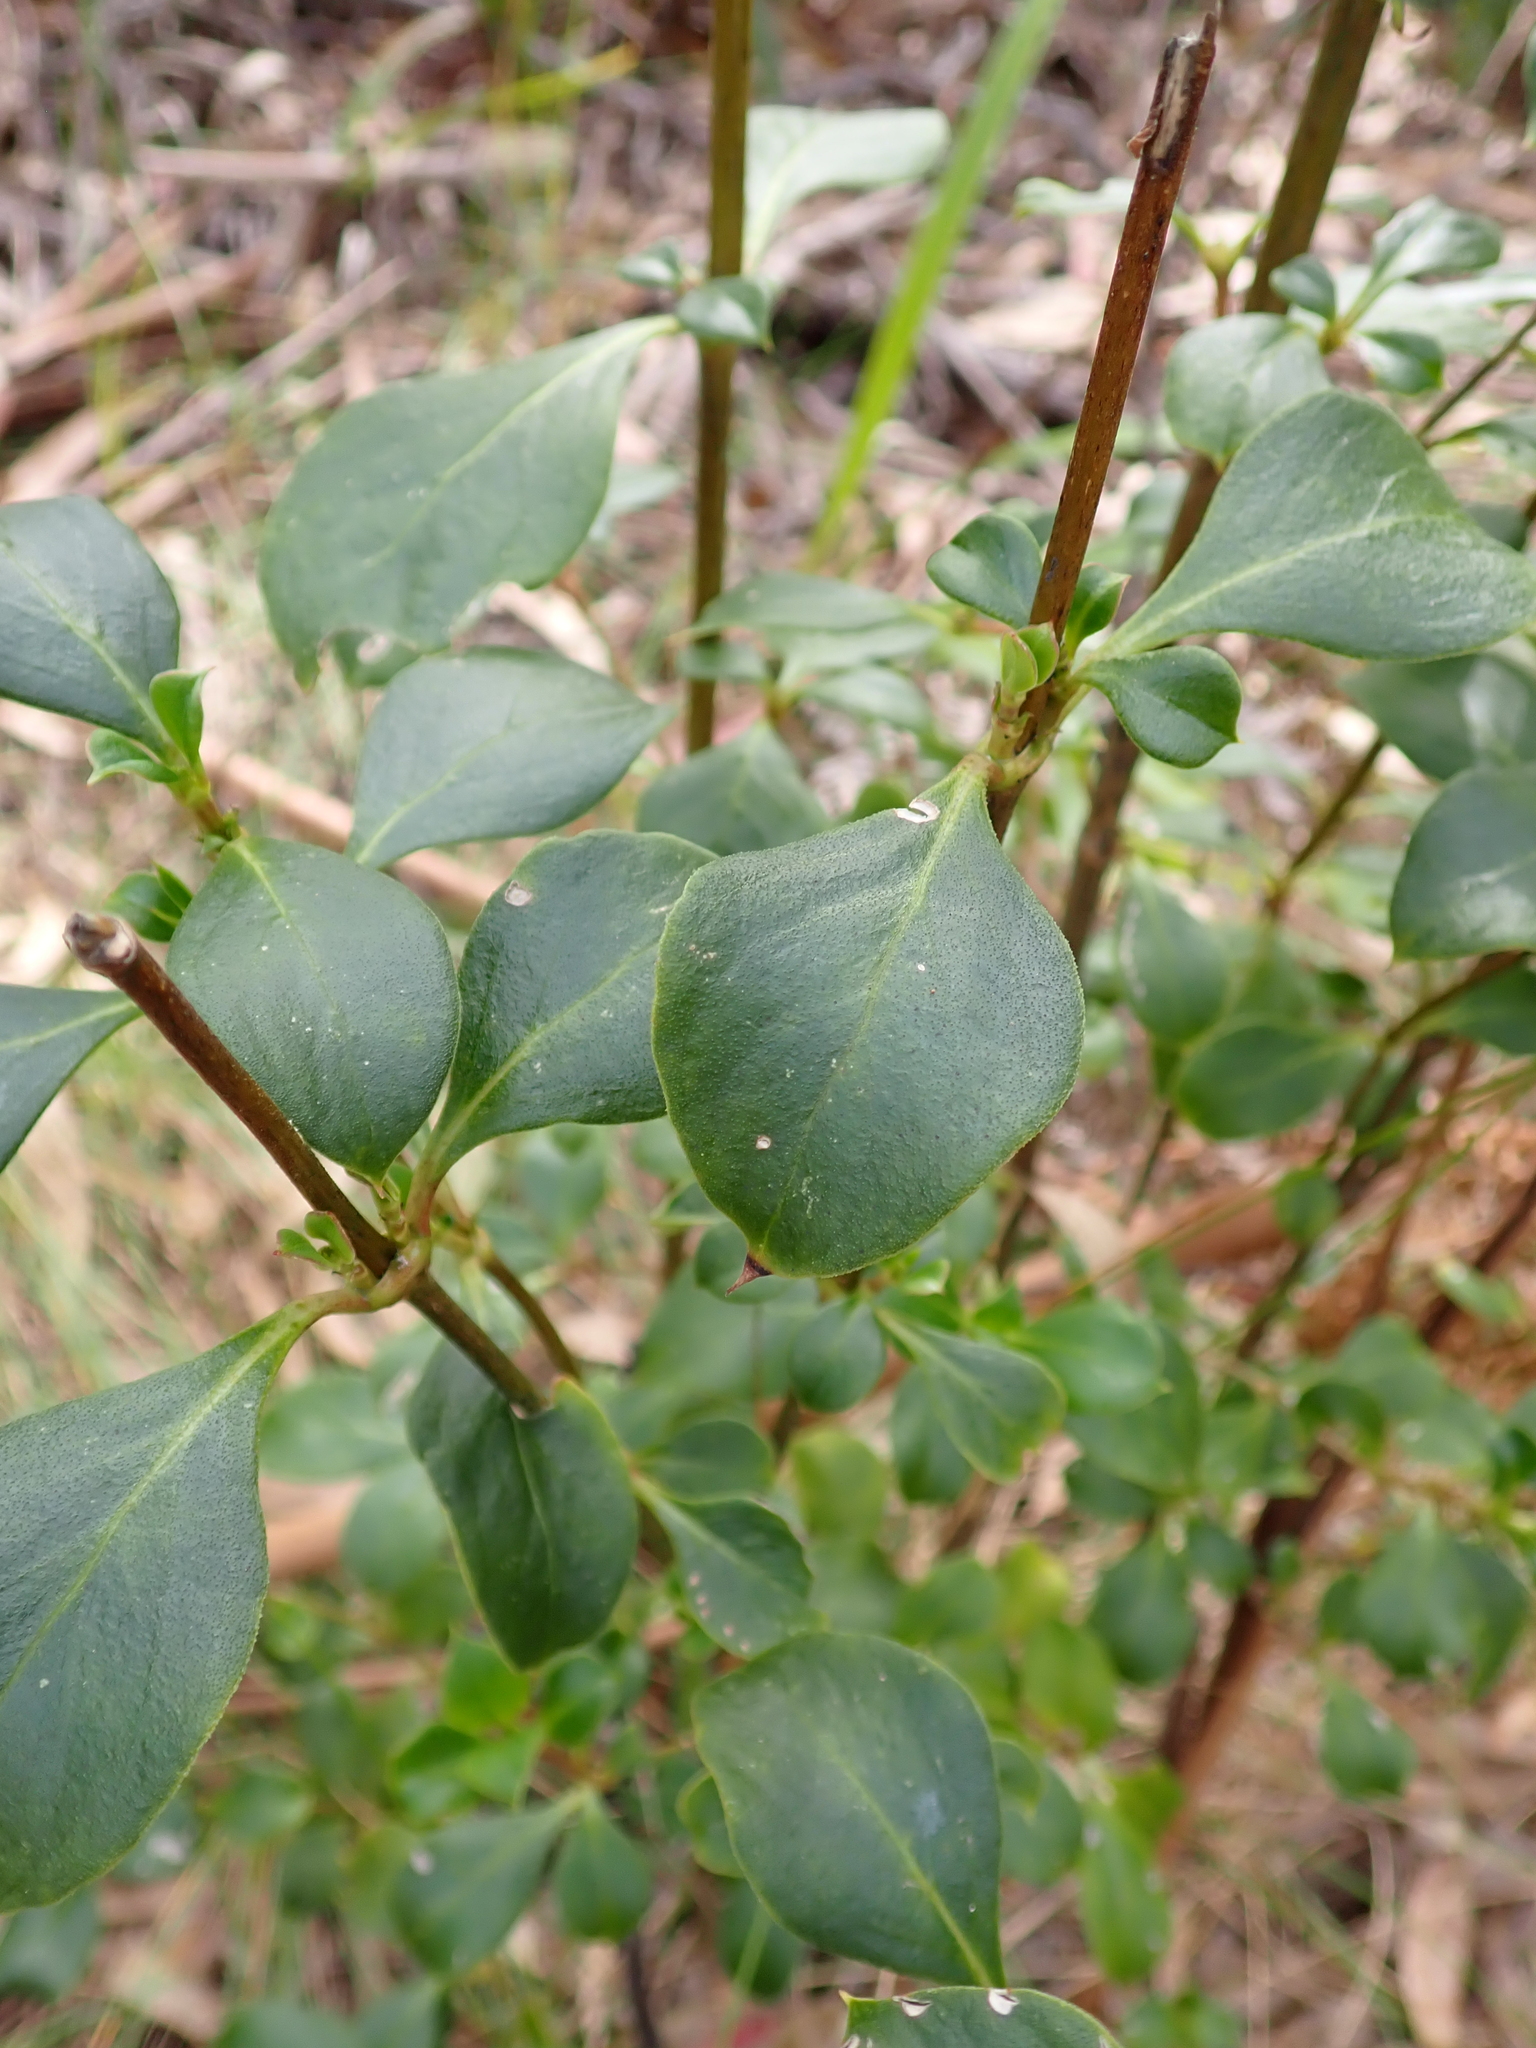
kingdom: Plantae
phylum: Tracheophyta
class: Magnoliopsida
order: Gentianales
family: Rubiaceae
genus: Coprosma
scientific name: Coprosma hirtella
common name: Rough coprosma
